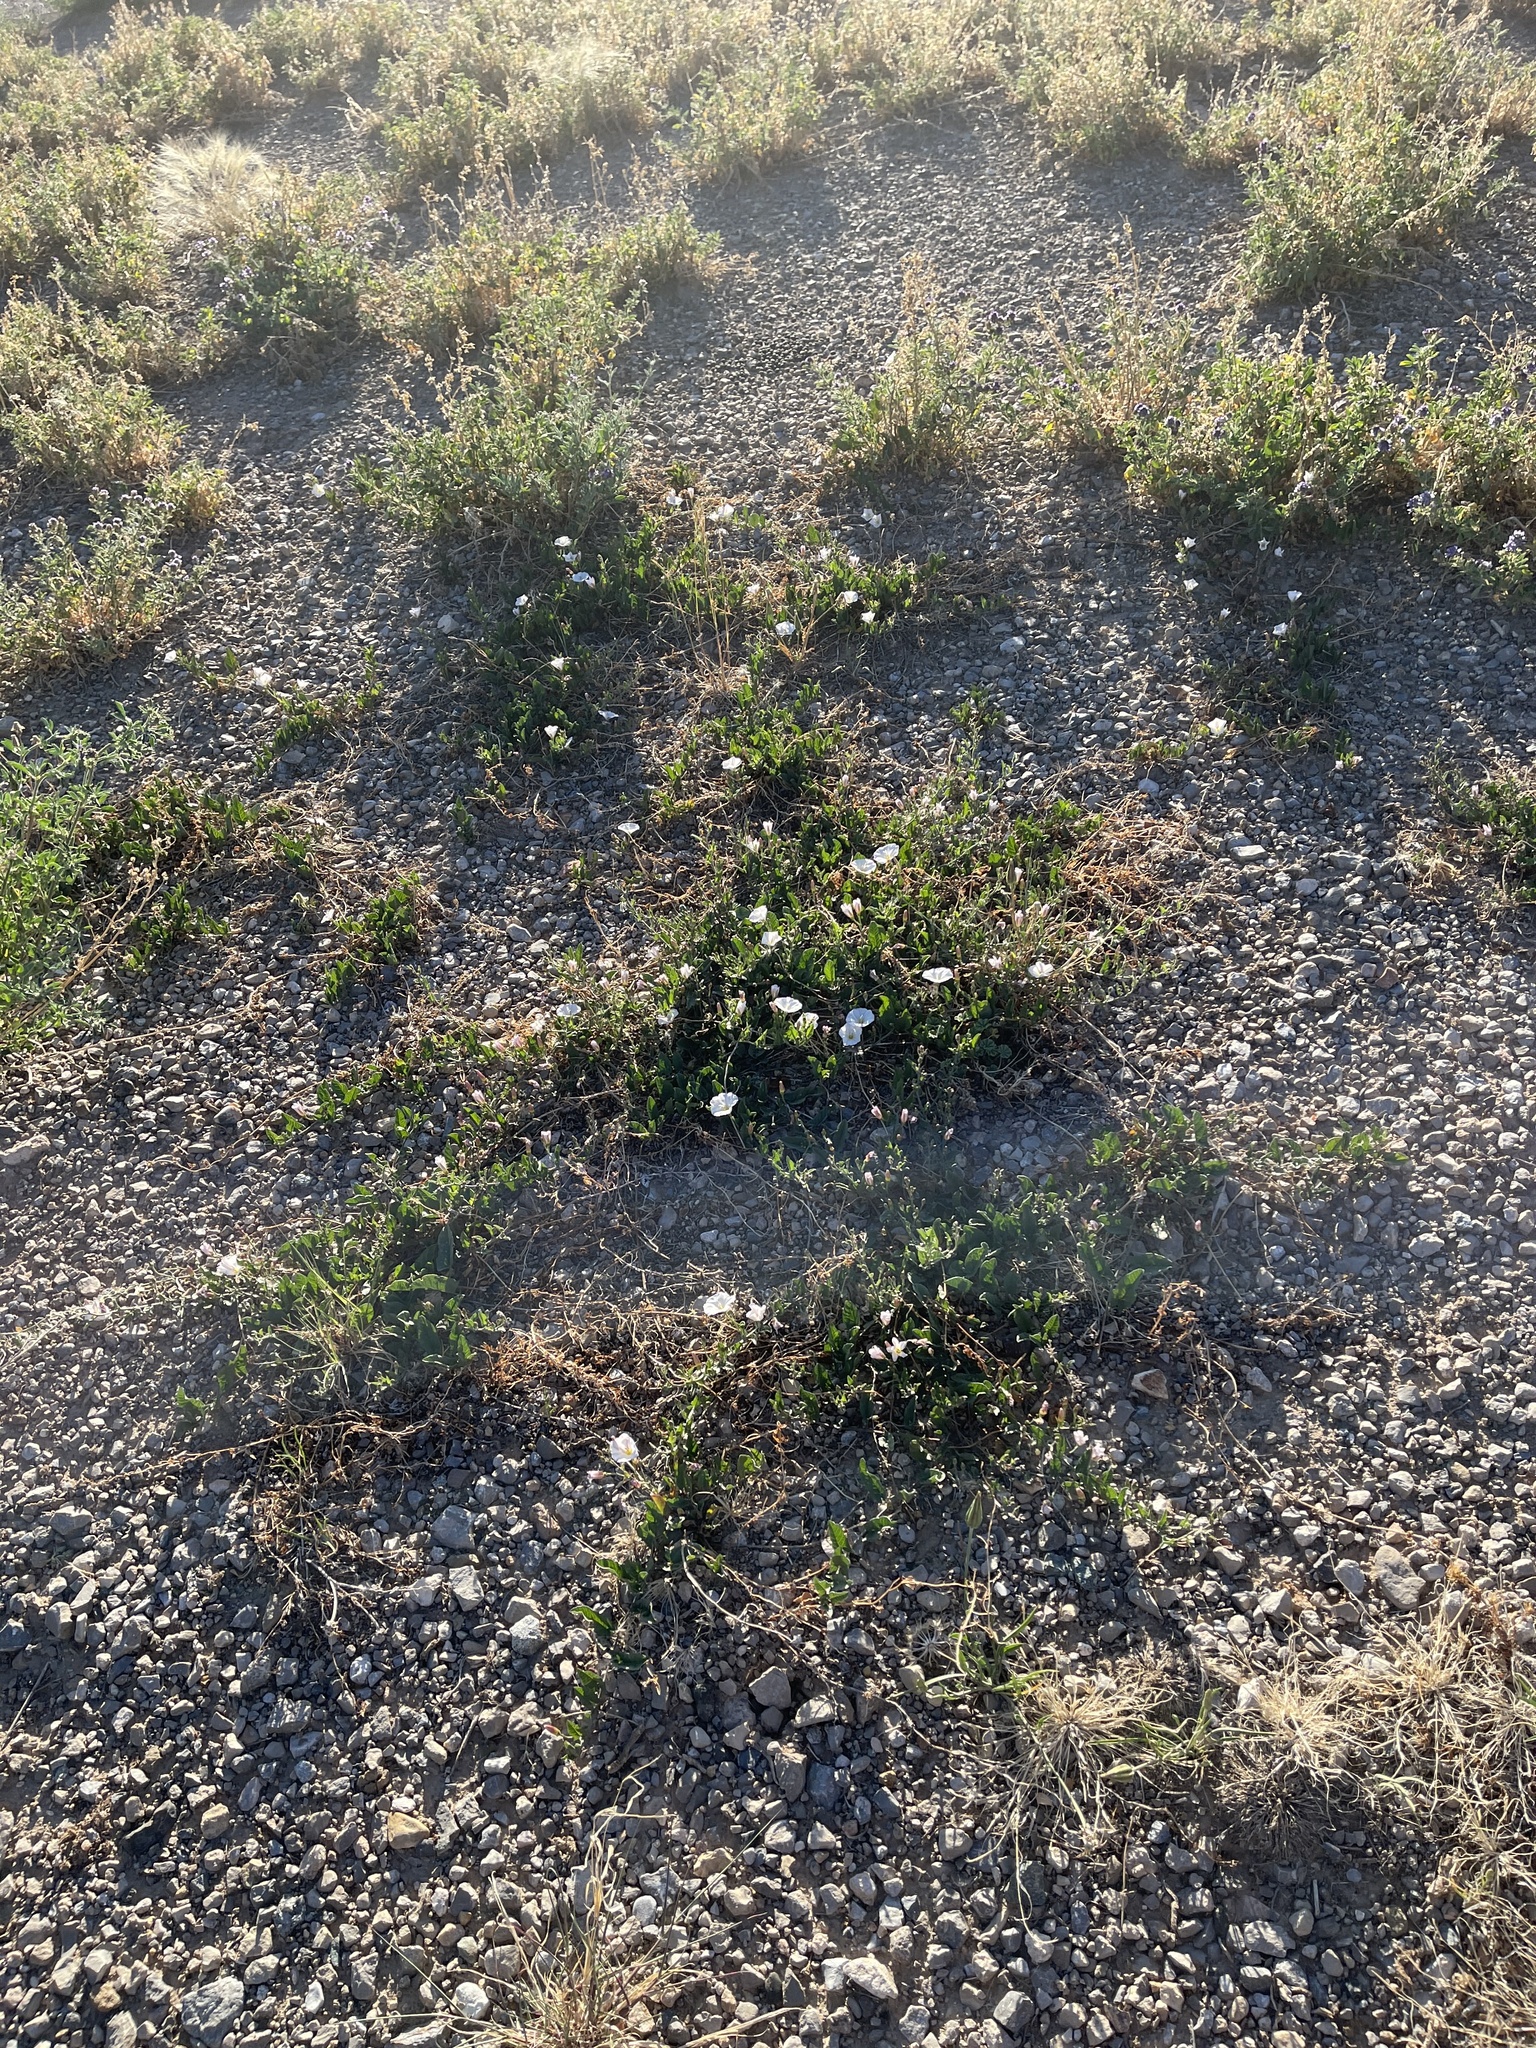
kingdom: Plantae
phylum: Tracheophyta
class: Magnoliopsida
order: Solanales
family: Convolvulaceae
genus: Convolvulus
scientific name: Convolvulus arvensis
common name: Field bindweed
